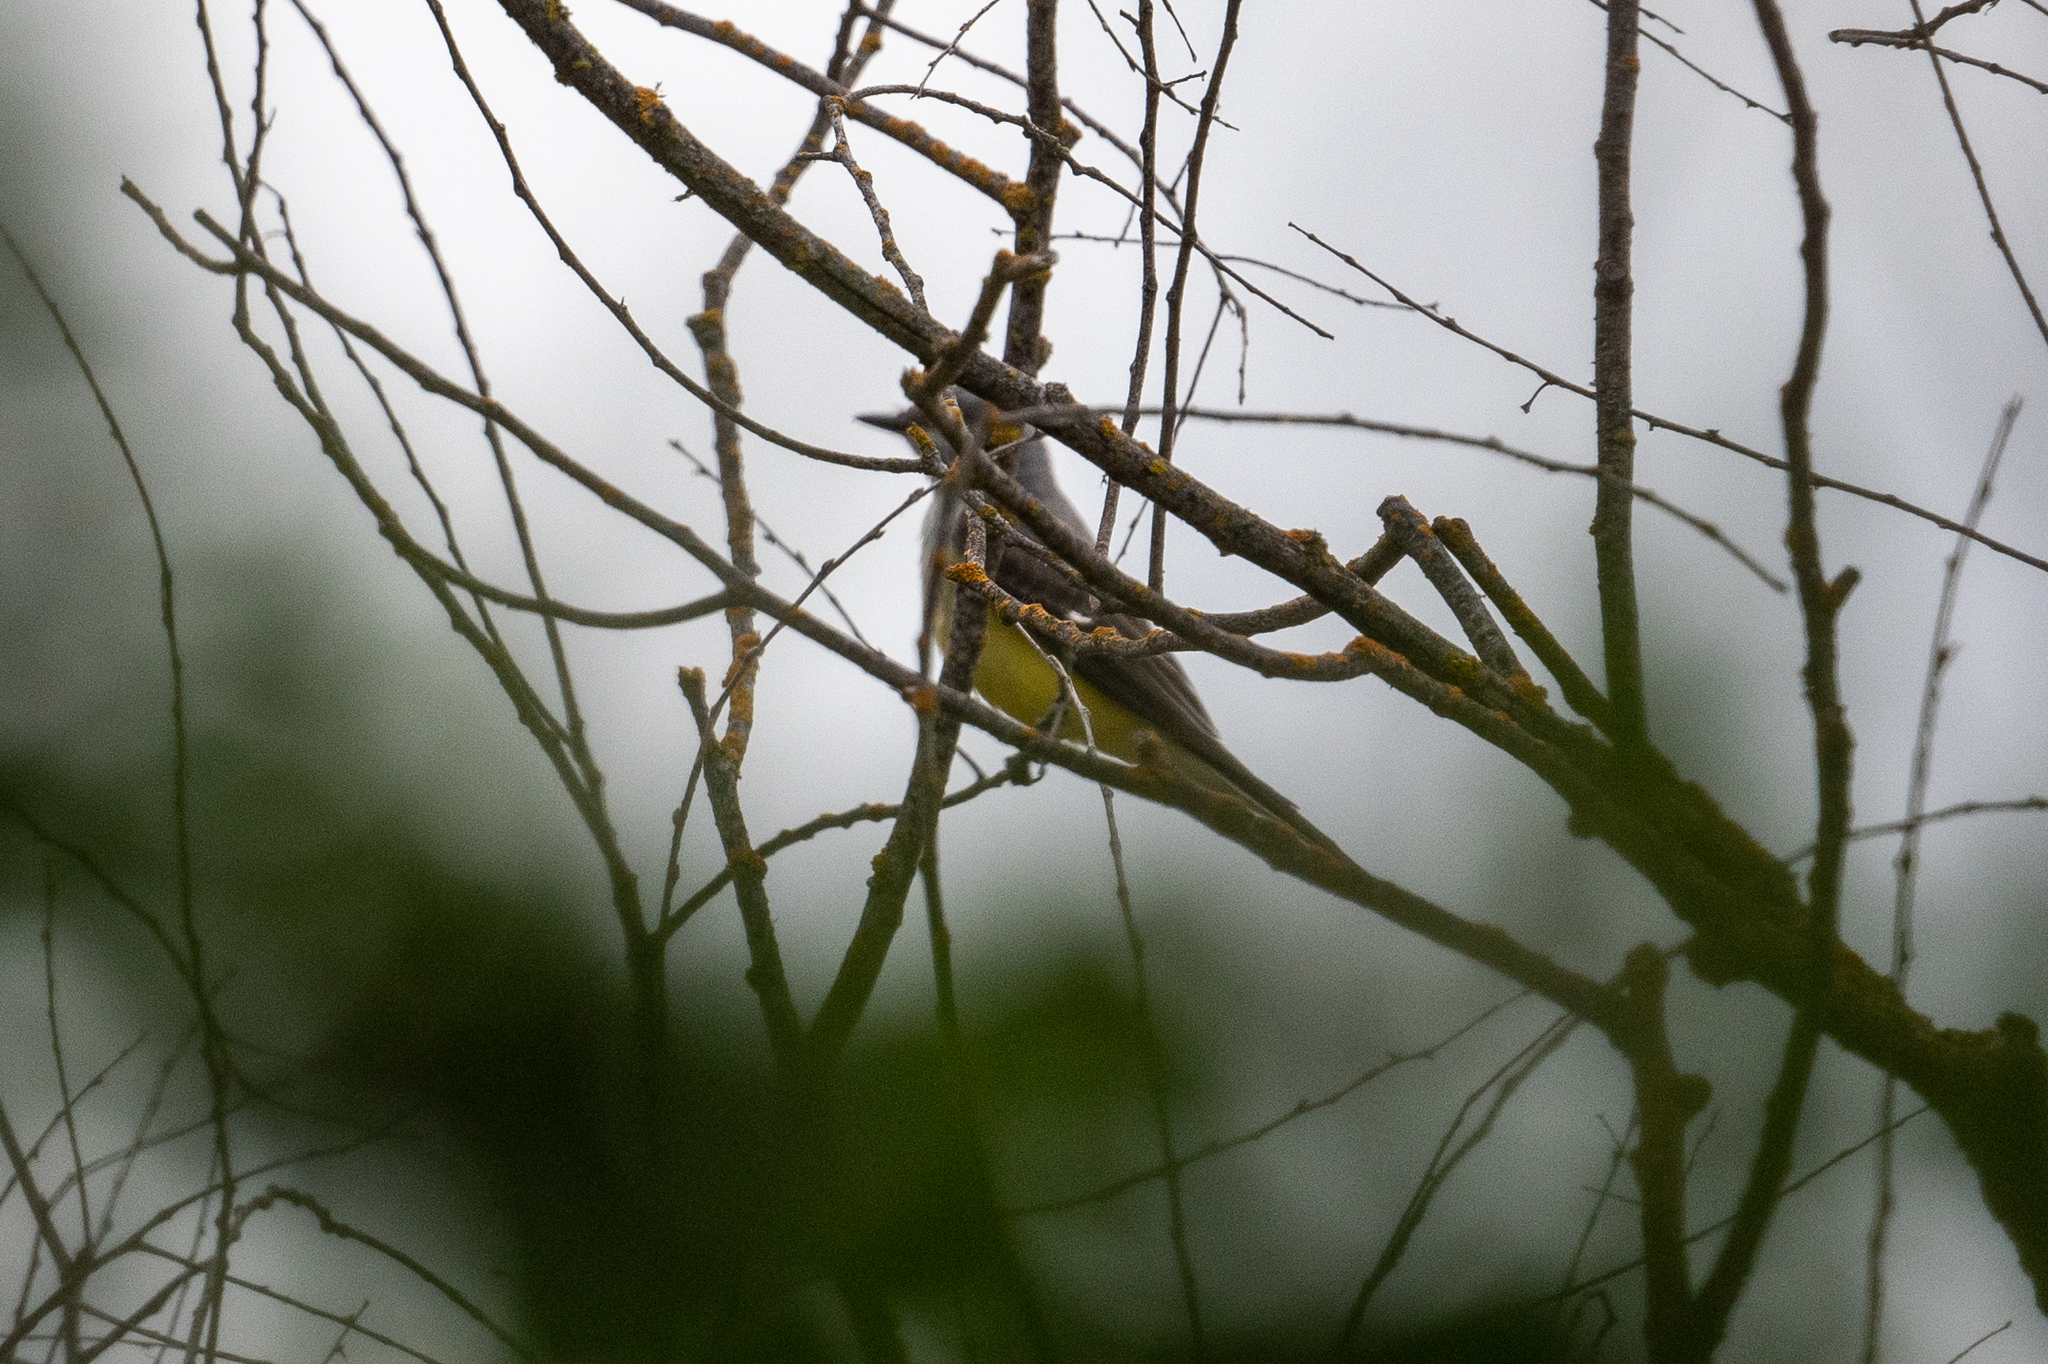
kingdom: Animalia
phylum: Chordata
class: Aves
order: Passeriformes
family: Tyrannidae
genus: Tyrannus
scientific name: Tyrannus verticalis
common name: Western kingbird
